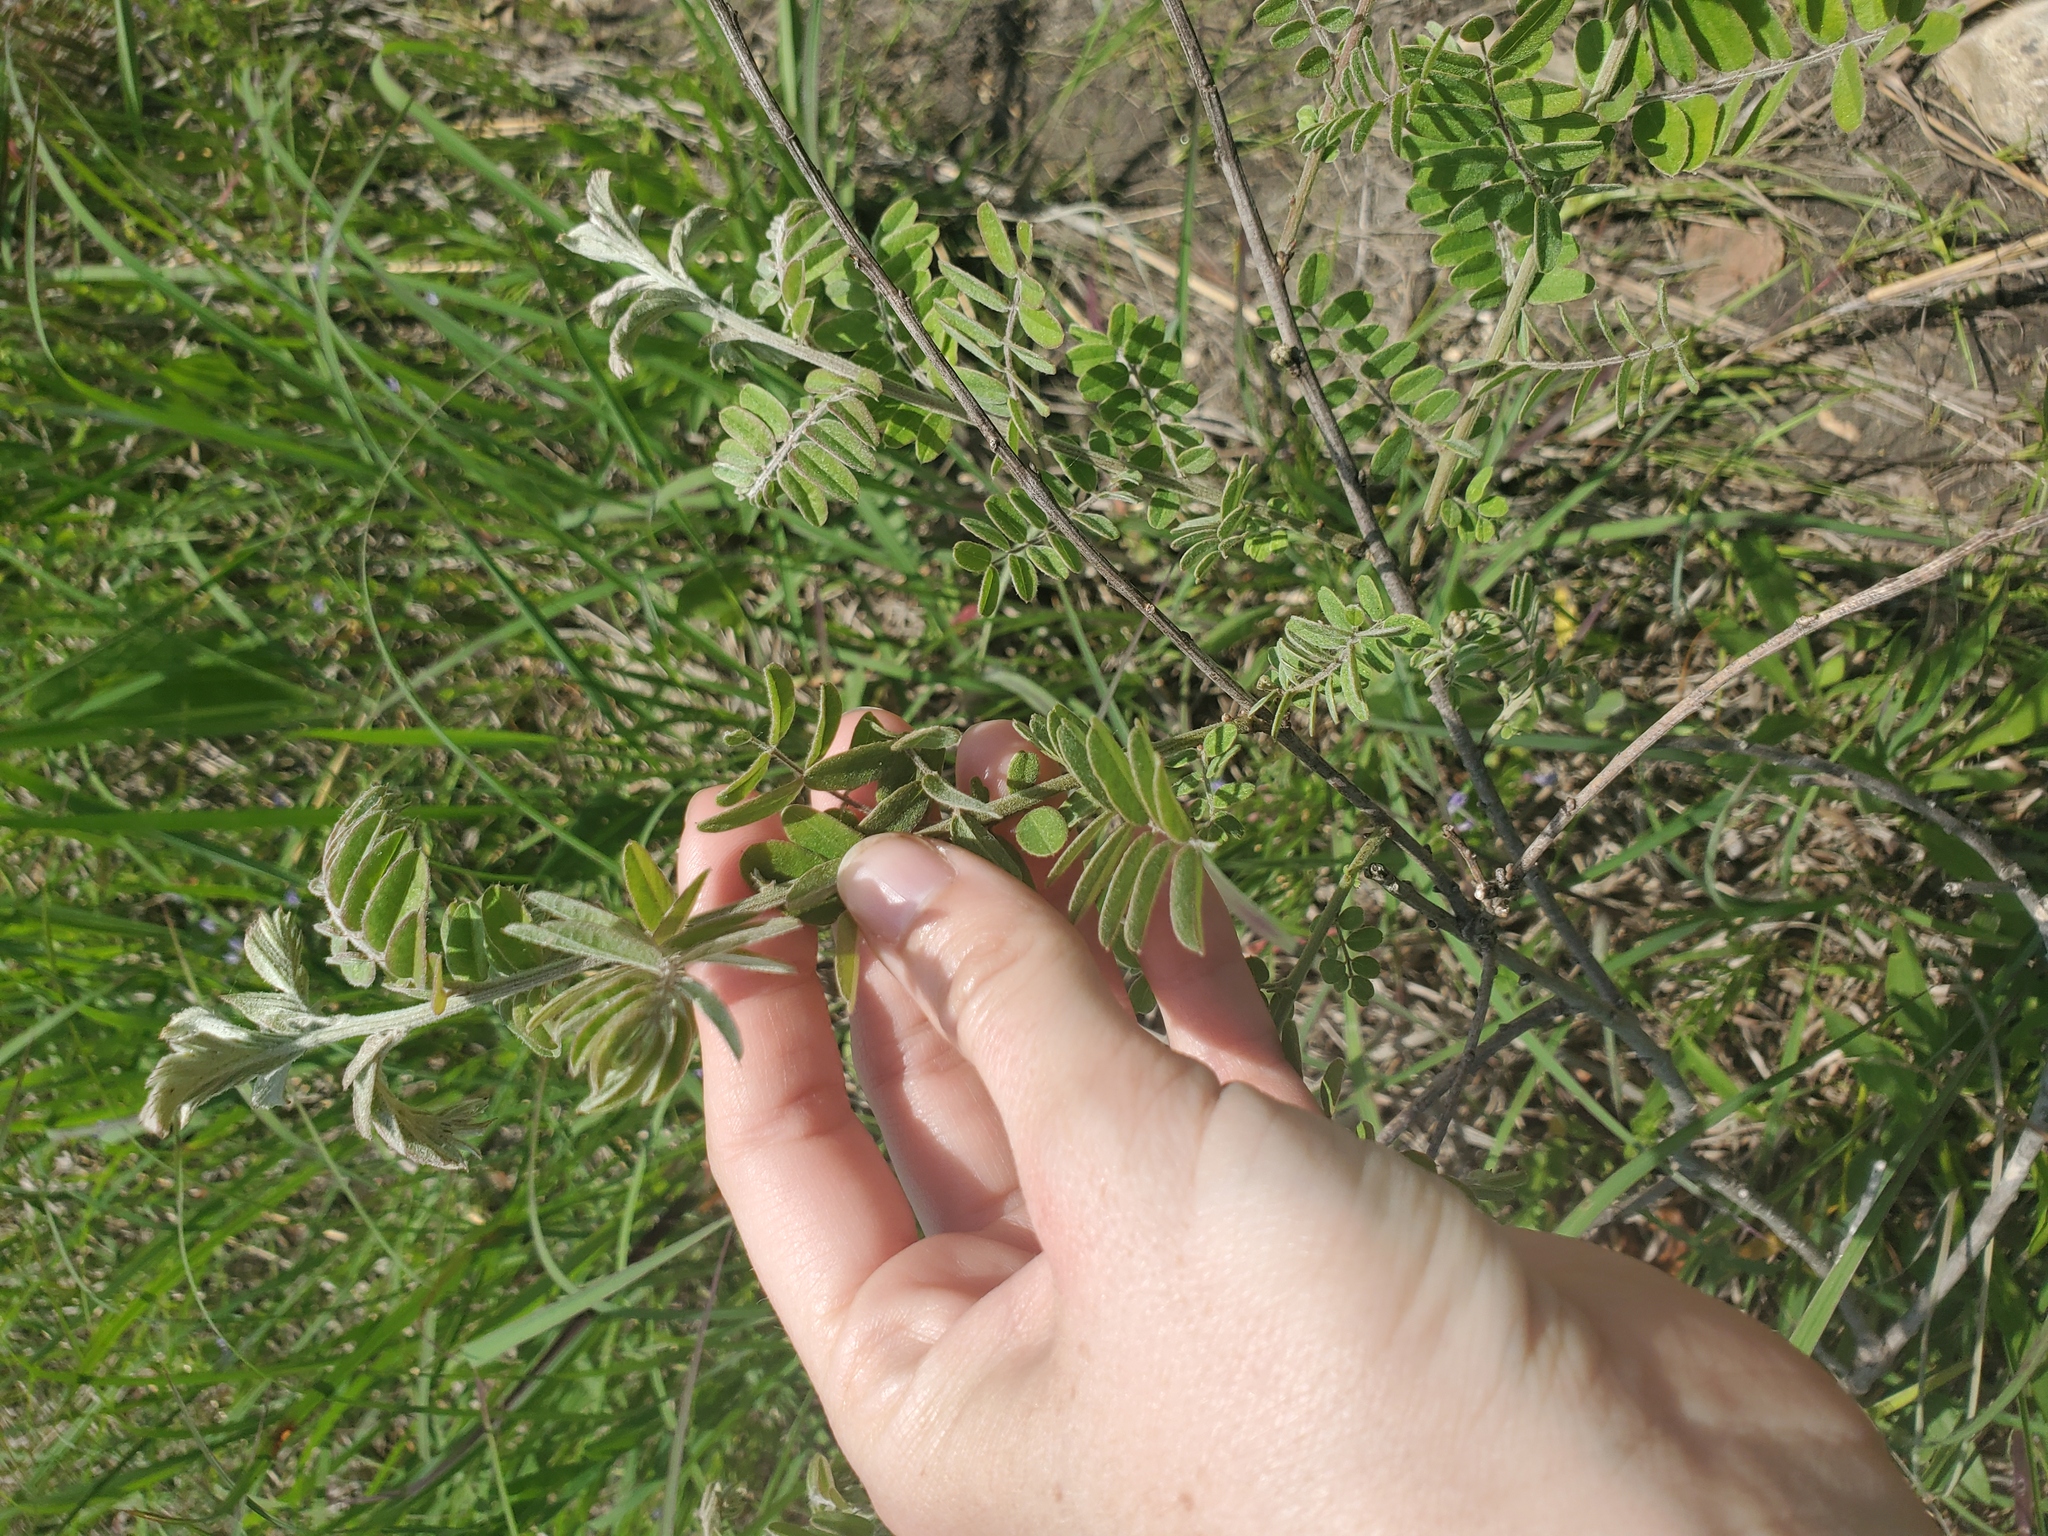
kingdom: Plantae
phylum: Tracheophyta
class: Magnoliopsida
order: Fabales
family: Fabaceae
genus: Amorpha
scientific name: Amorpha canescens
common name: Leadplant
